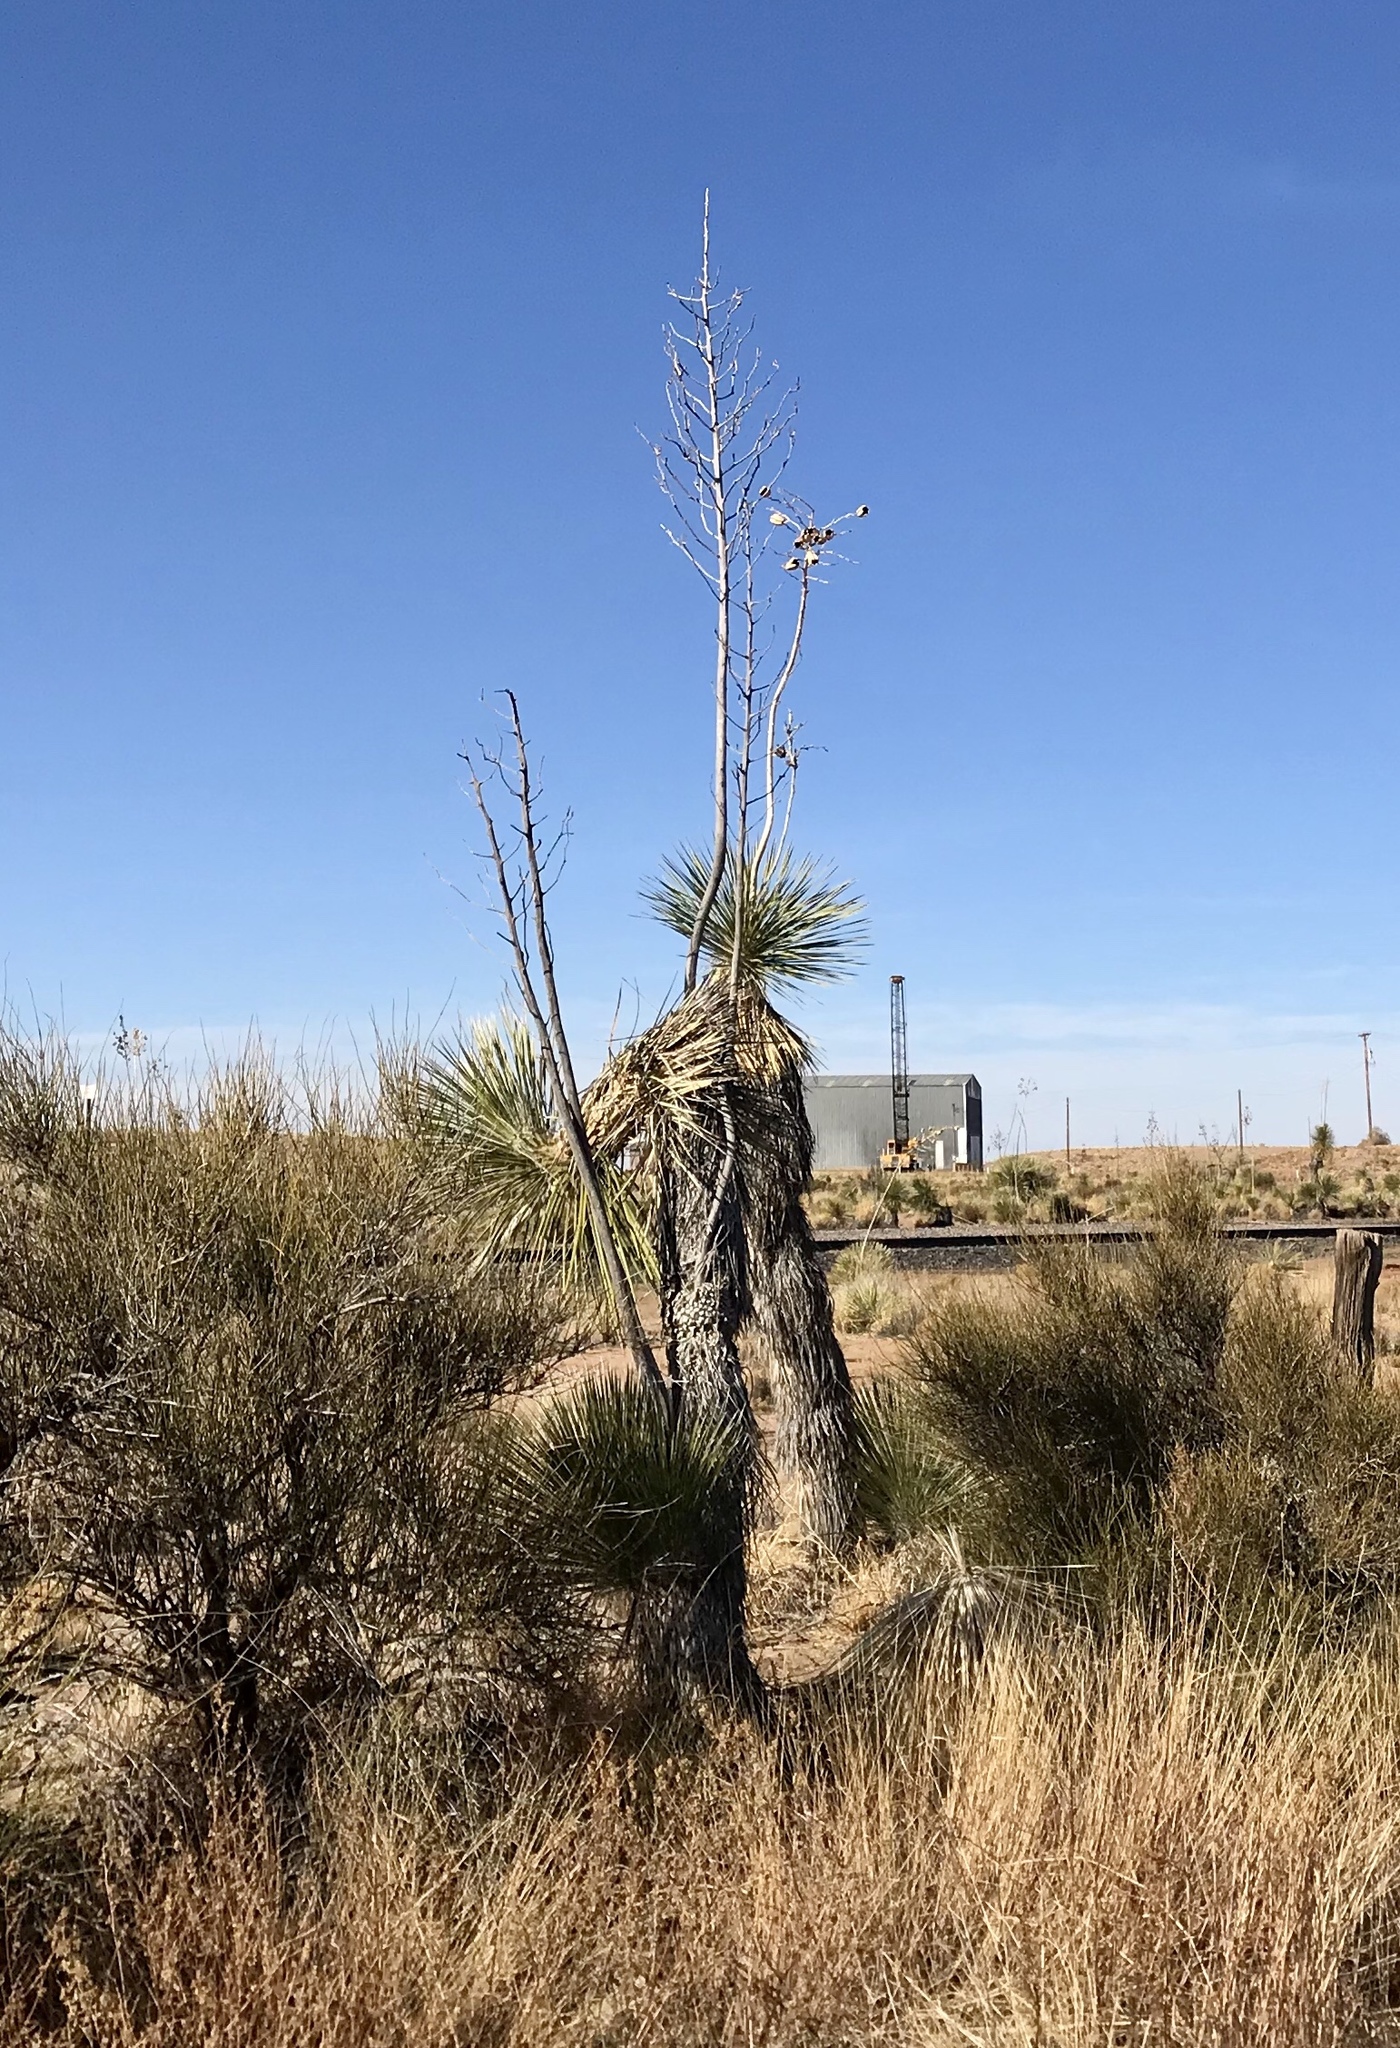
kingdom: Plantae
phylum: Tracheophyta
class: Liliopsida
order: Asparagales
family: Asparagaceae
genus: Yucca
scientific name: Yucca elata
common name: Palmella
